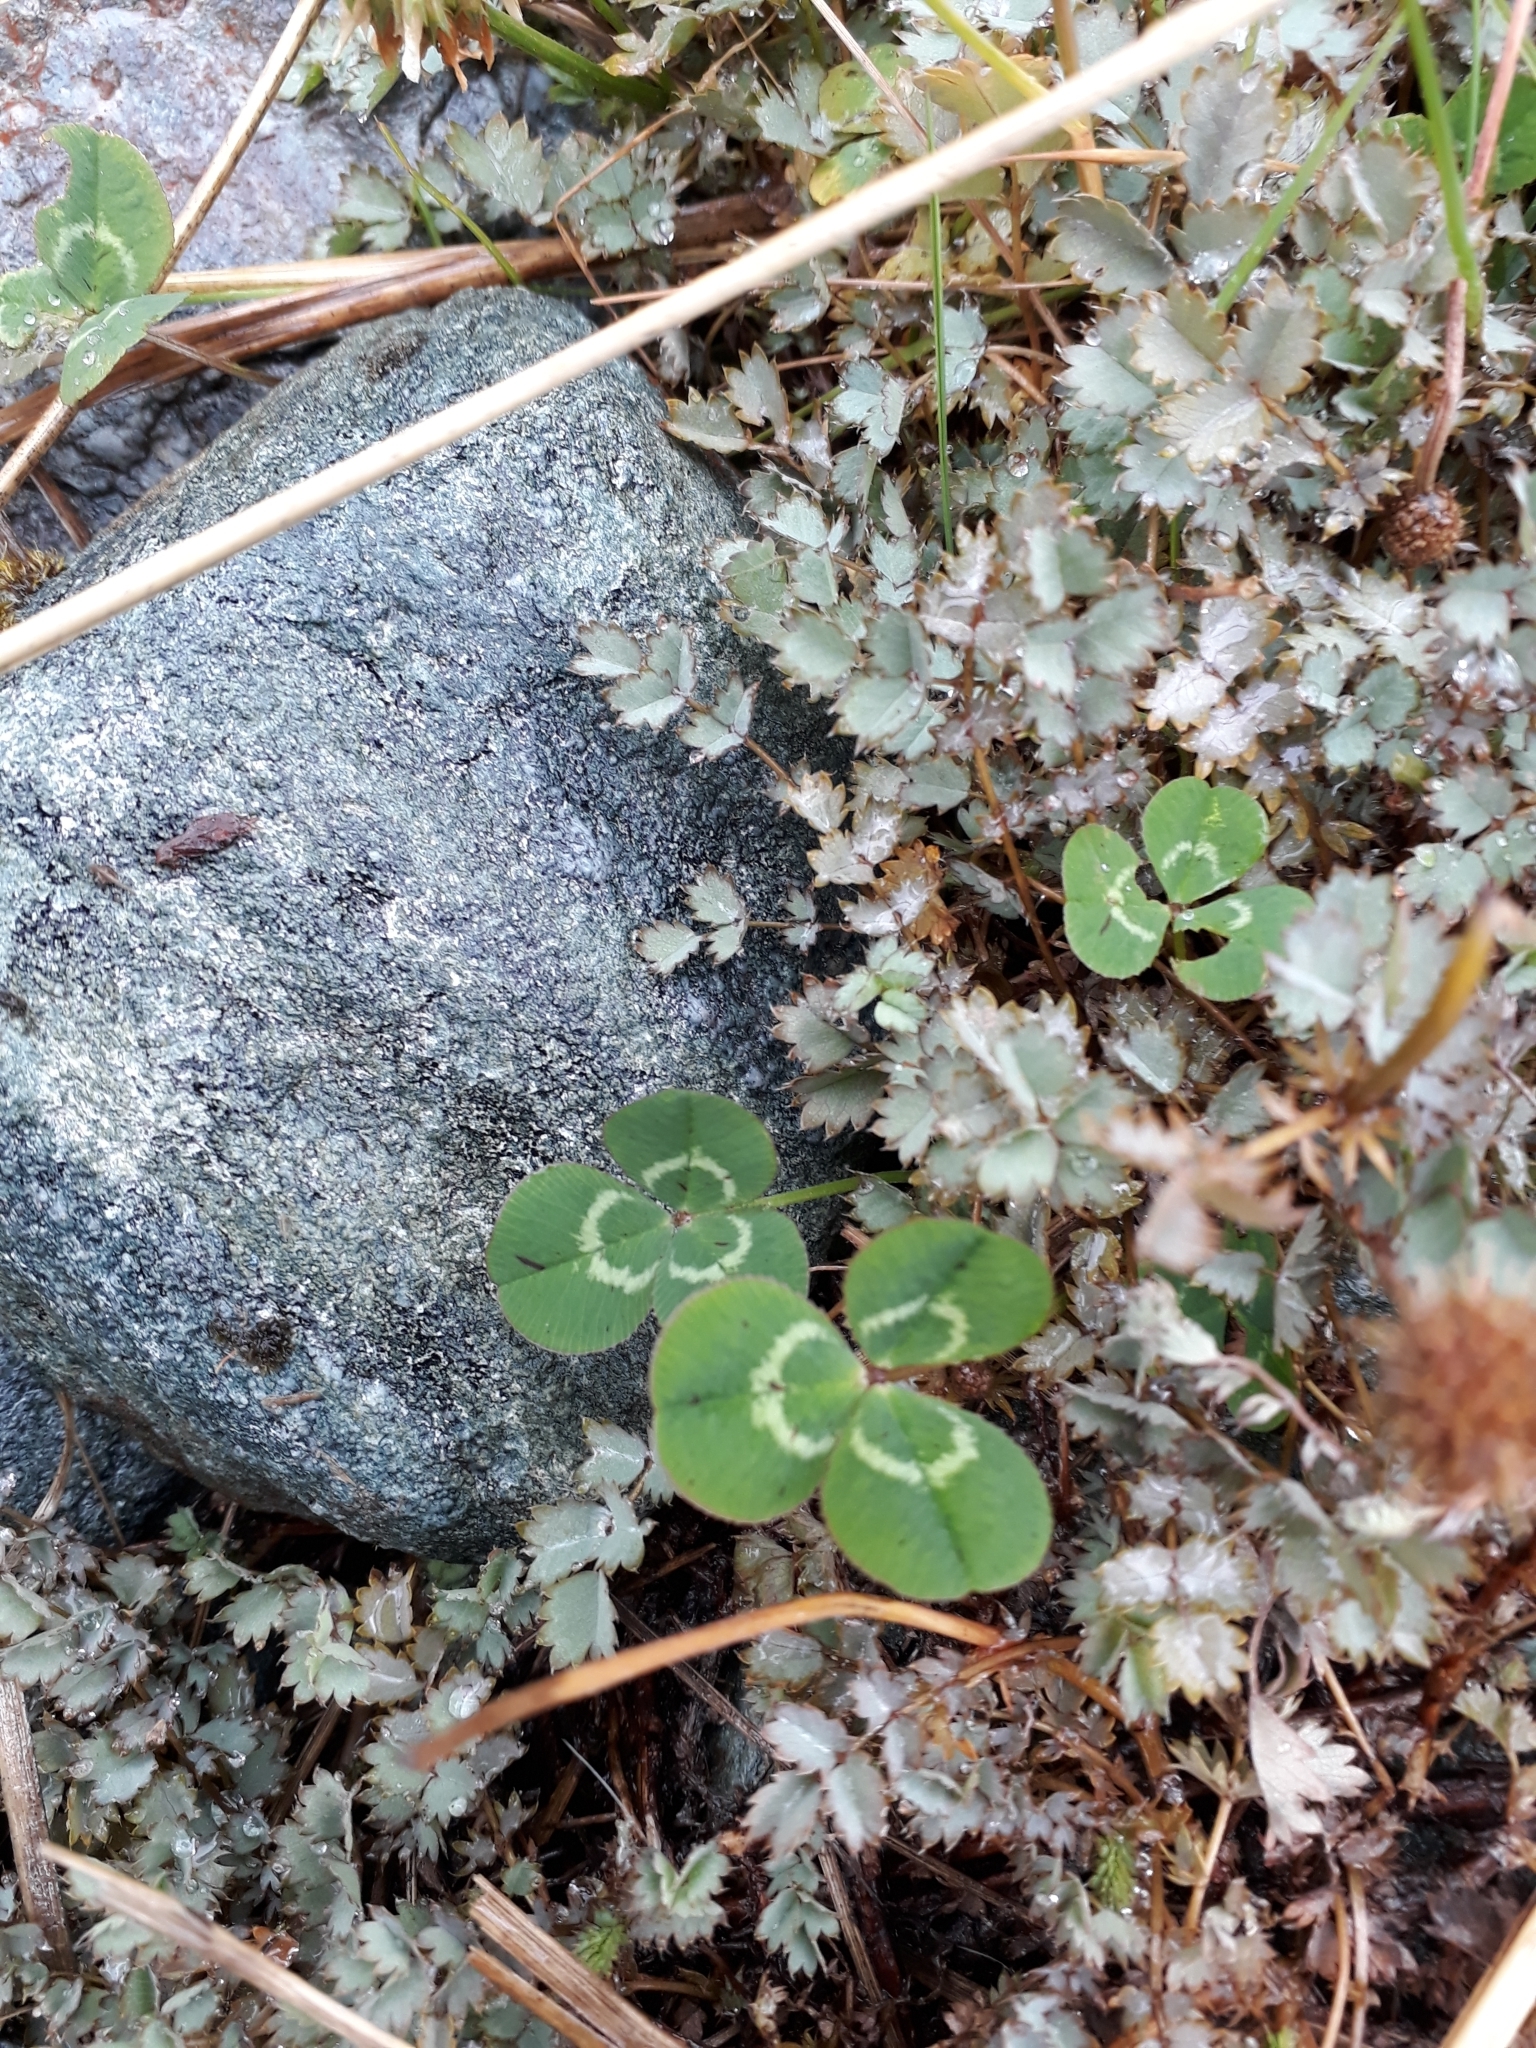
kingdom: Plantae
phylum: Tracheophyta
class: Magnoliopsida
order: Rosales
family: Rosaceae
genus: Acaena
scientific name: Acaena caesiiglauca
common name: Glaucous pirri-pirri-bur
